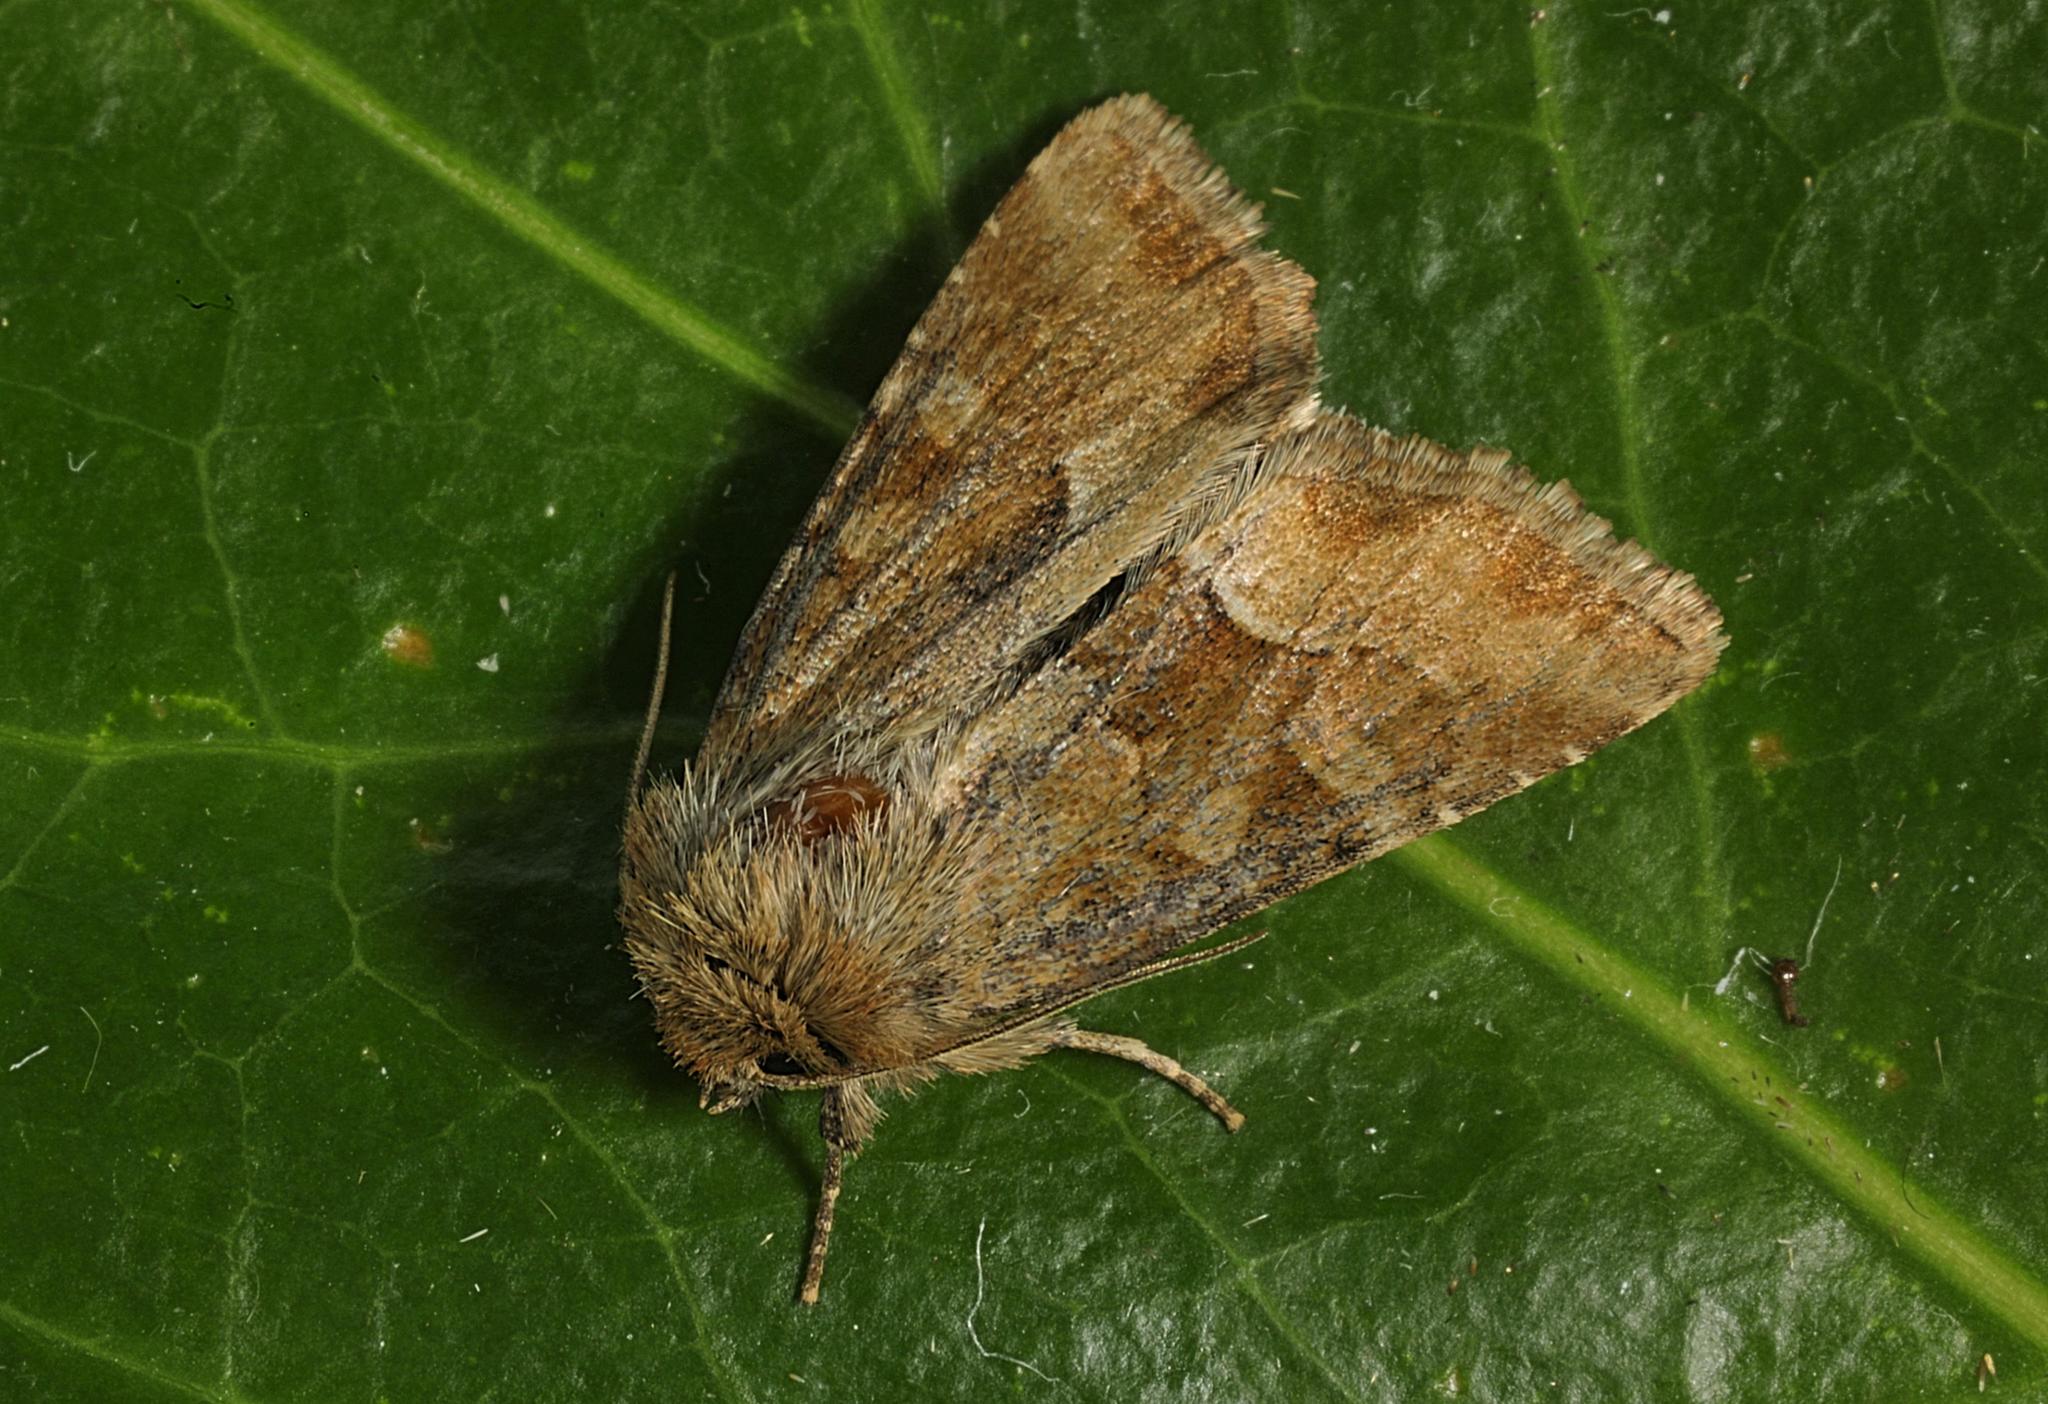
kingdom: Animalia
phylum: Arthropoda
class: Insecta
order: Lepidoptera
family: Noctuidae
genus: Oligia
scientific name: Oligia fasciuncula
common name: Middle-barred minor
